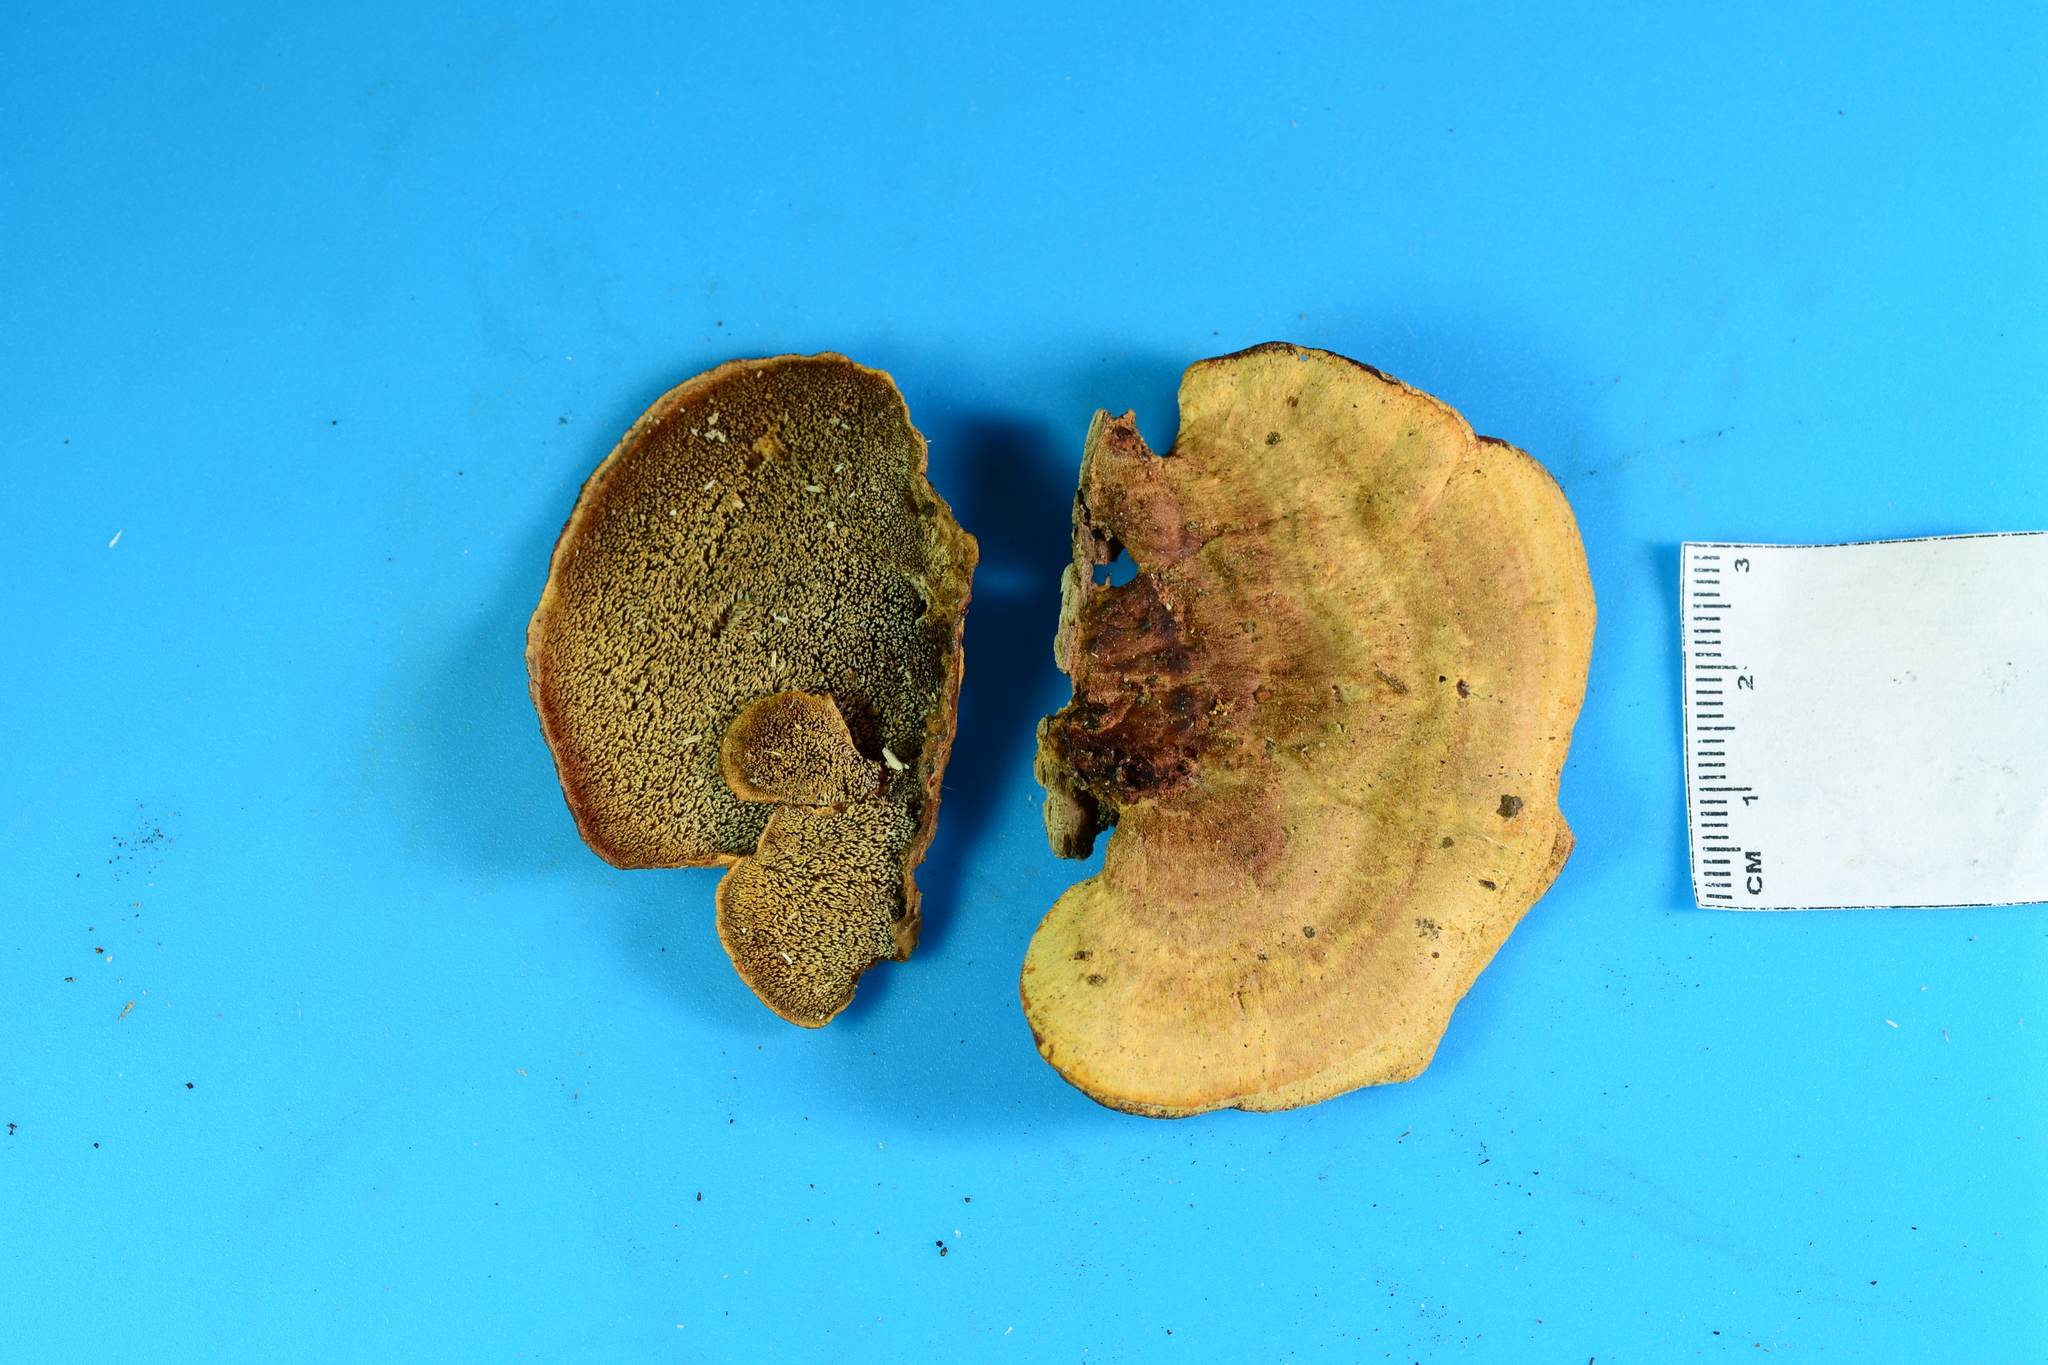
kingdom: Fungi
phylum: Basidiomycota
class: Agaricomycetes
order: Polyporales
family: Steccherinaceae
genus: Steccherinum
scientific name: Steccherinum rawakense
